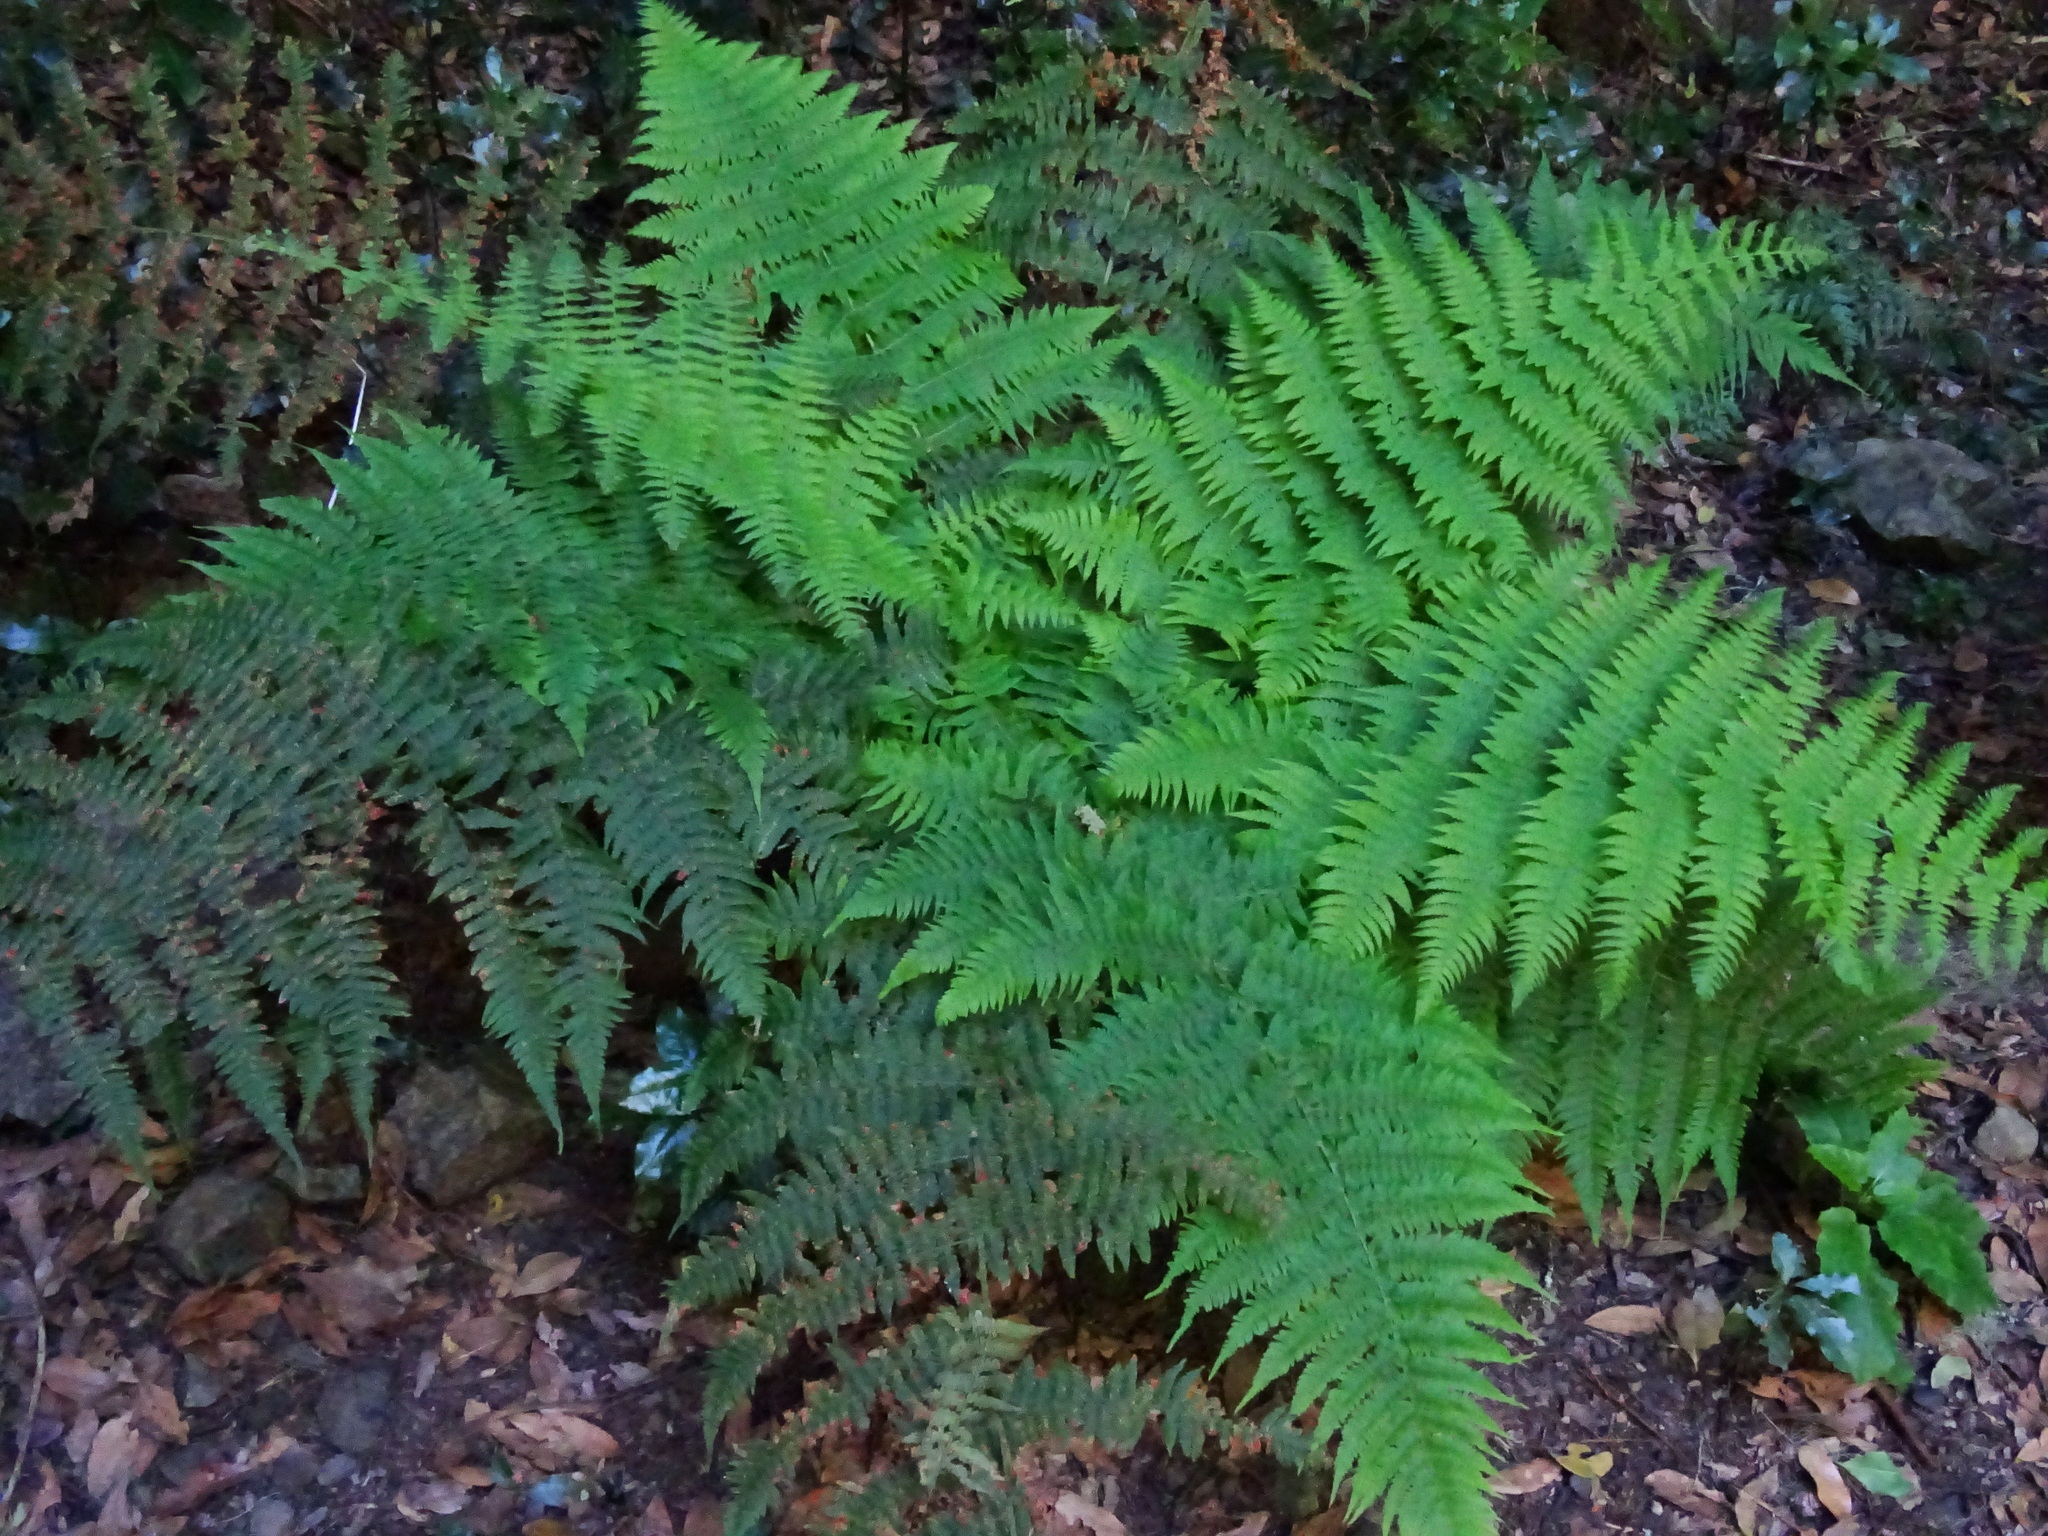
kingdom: Plantae
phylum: Tracheophyta
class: Polypodiopsida
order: Polypodiales
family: Dryopteridaceae
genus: Dryopteris
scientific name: Dryopteris oligodonta
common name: Canarian male-fern
